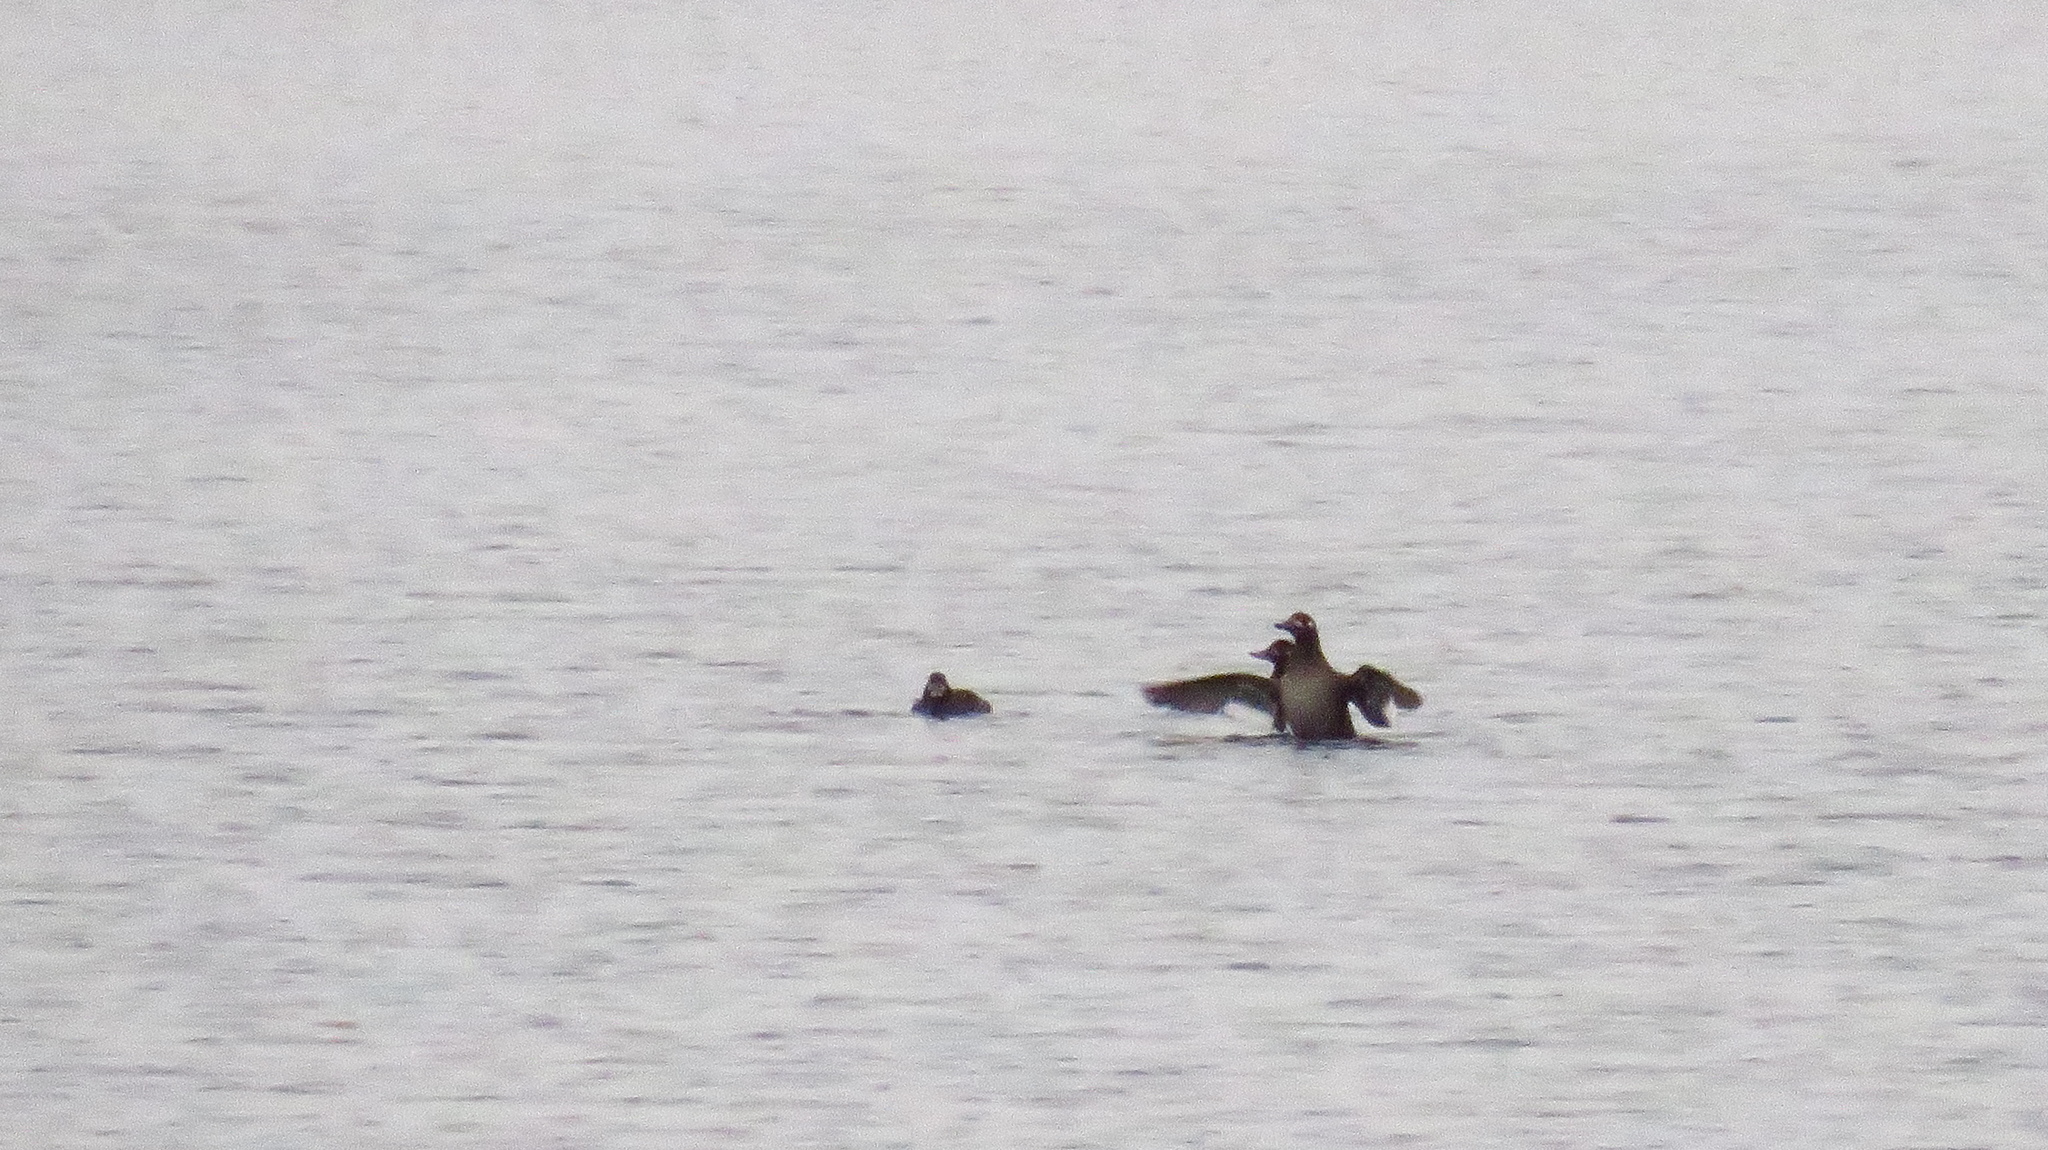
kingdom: Animalia
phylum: Chordata
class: Aves
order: Anseriformes
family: Anatidae
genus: Melanitta
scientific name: Melanitta fusca
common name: Velvet scoter
